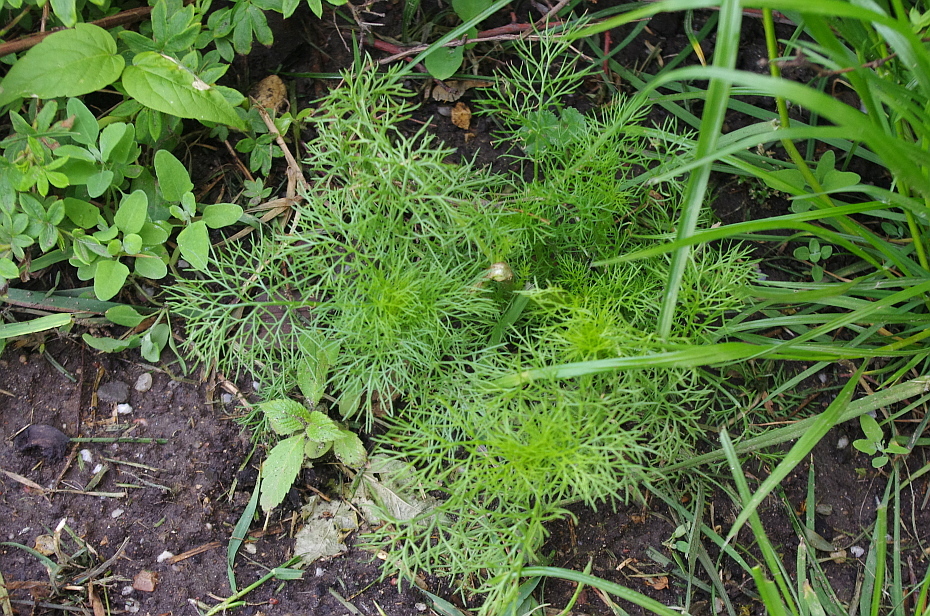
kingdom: Plantae
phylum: Tracheophyta
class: Magnoliopsida
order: Asterales
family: Asteraceae
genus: Tripleurospermum
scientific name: Tripleurospermum inodorum
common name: Scentless mayweed
